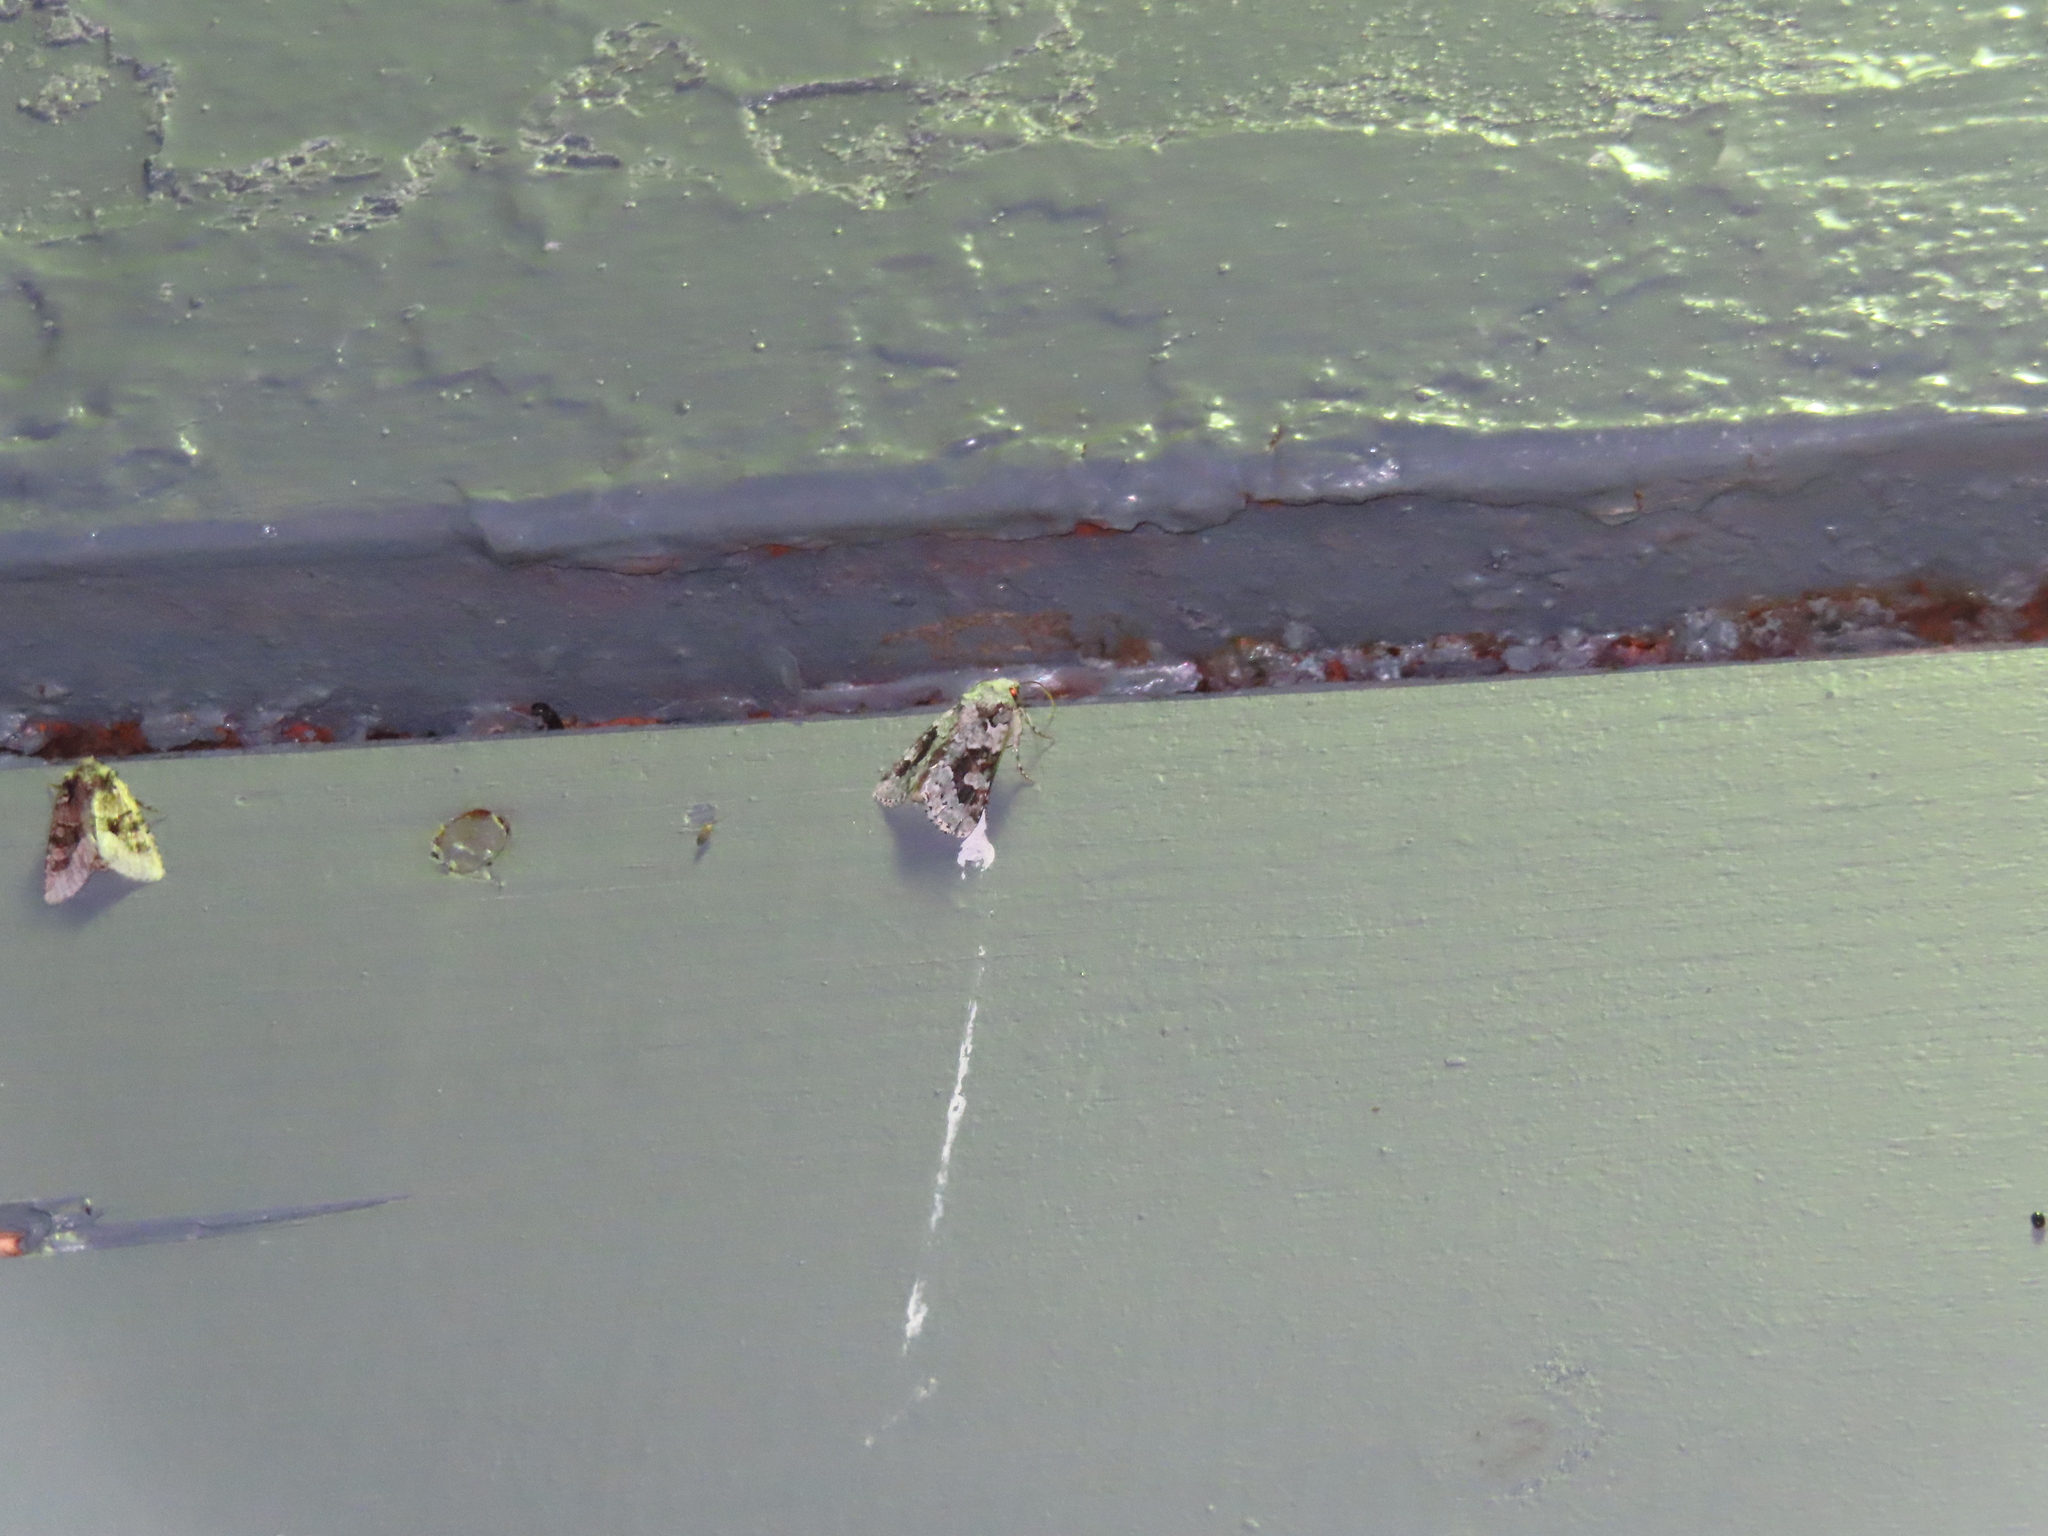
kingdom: Animalia
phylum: Arthropoda
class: Insecta
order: Lepidoptera
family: Noctuidae
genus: Lacinipolia
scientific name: Lacinipolia laudabilis
